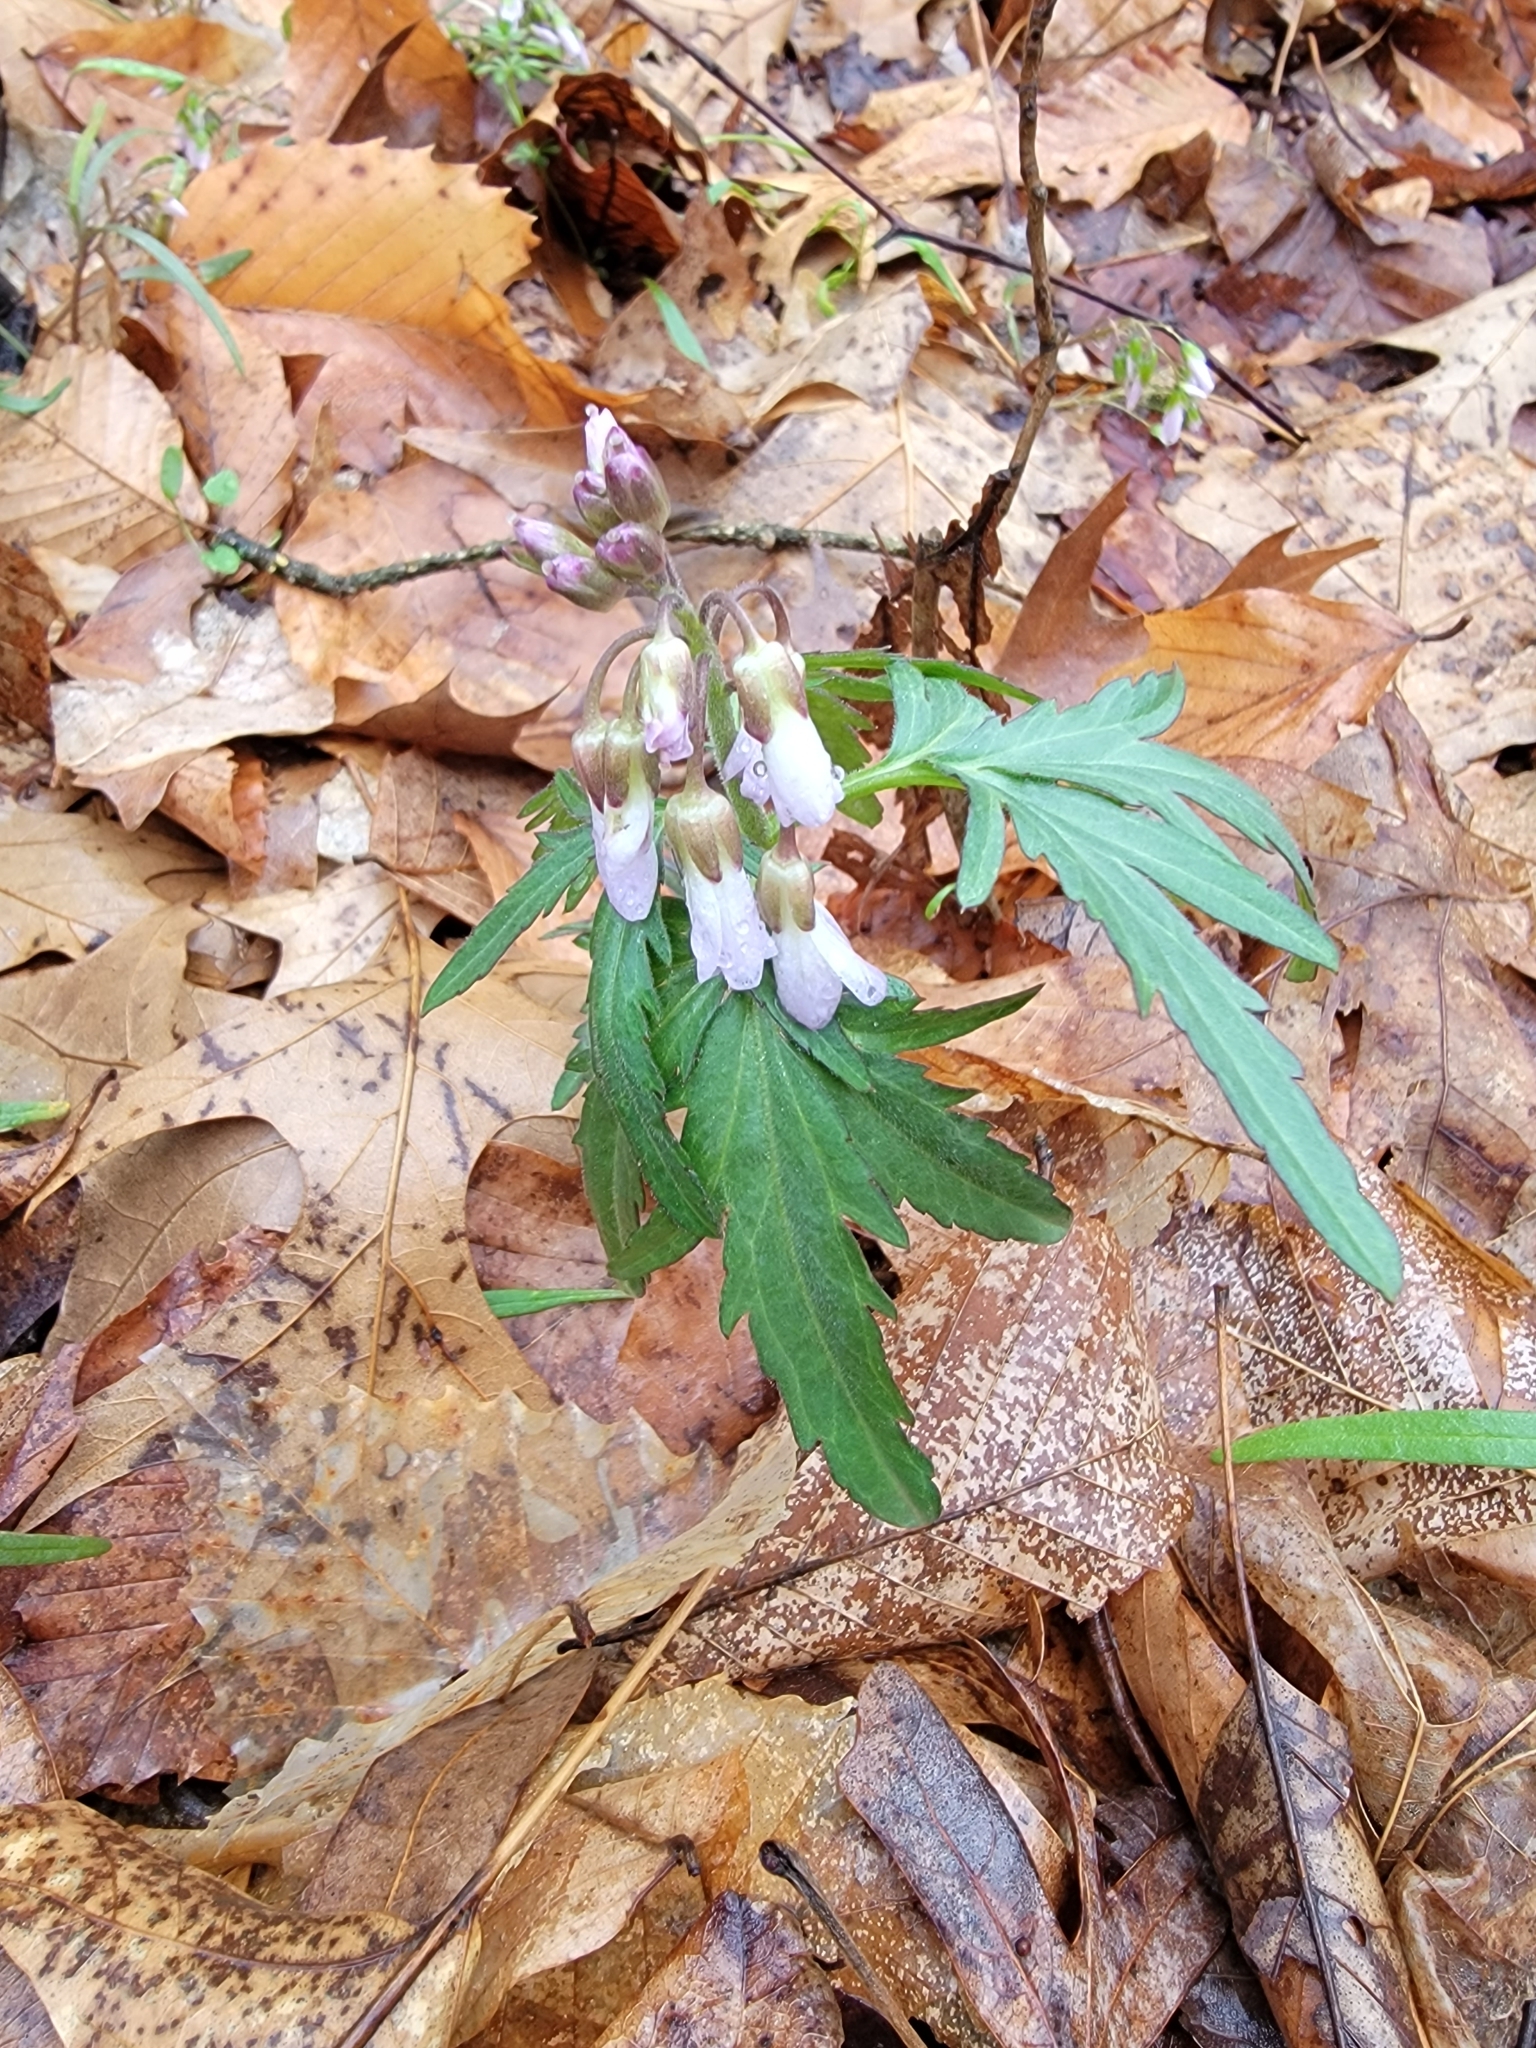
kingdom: Plantae
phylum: Tracheophyta
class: Magnoliopsida
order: Brassicales
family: Brassicaceae
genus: Cardamine
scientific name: Cardamine concatenata
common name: Cut-leaf toothcup
